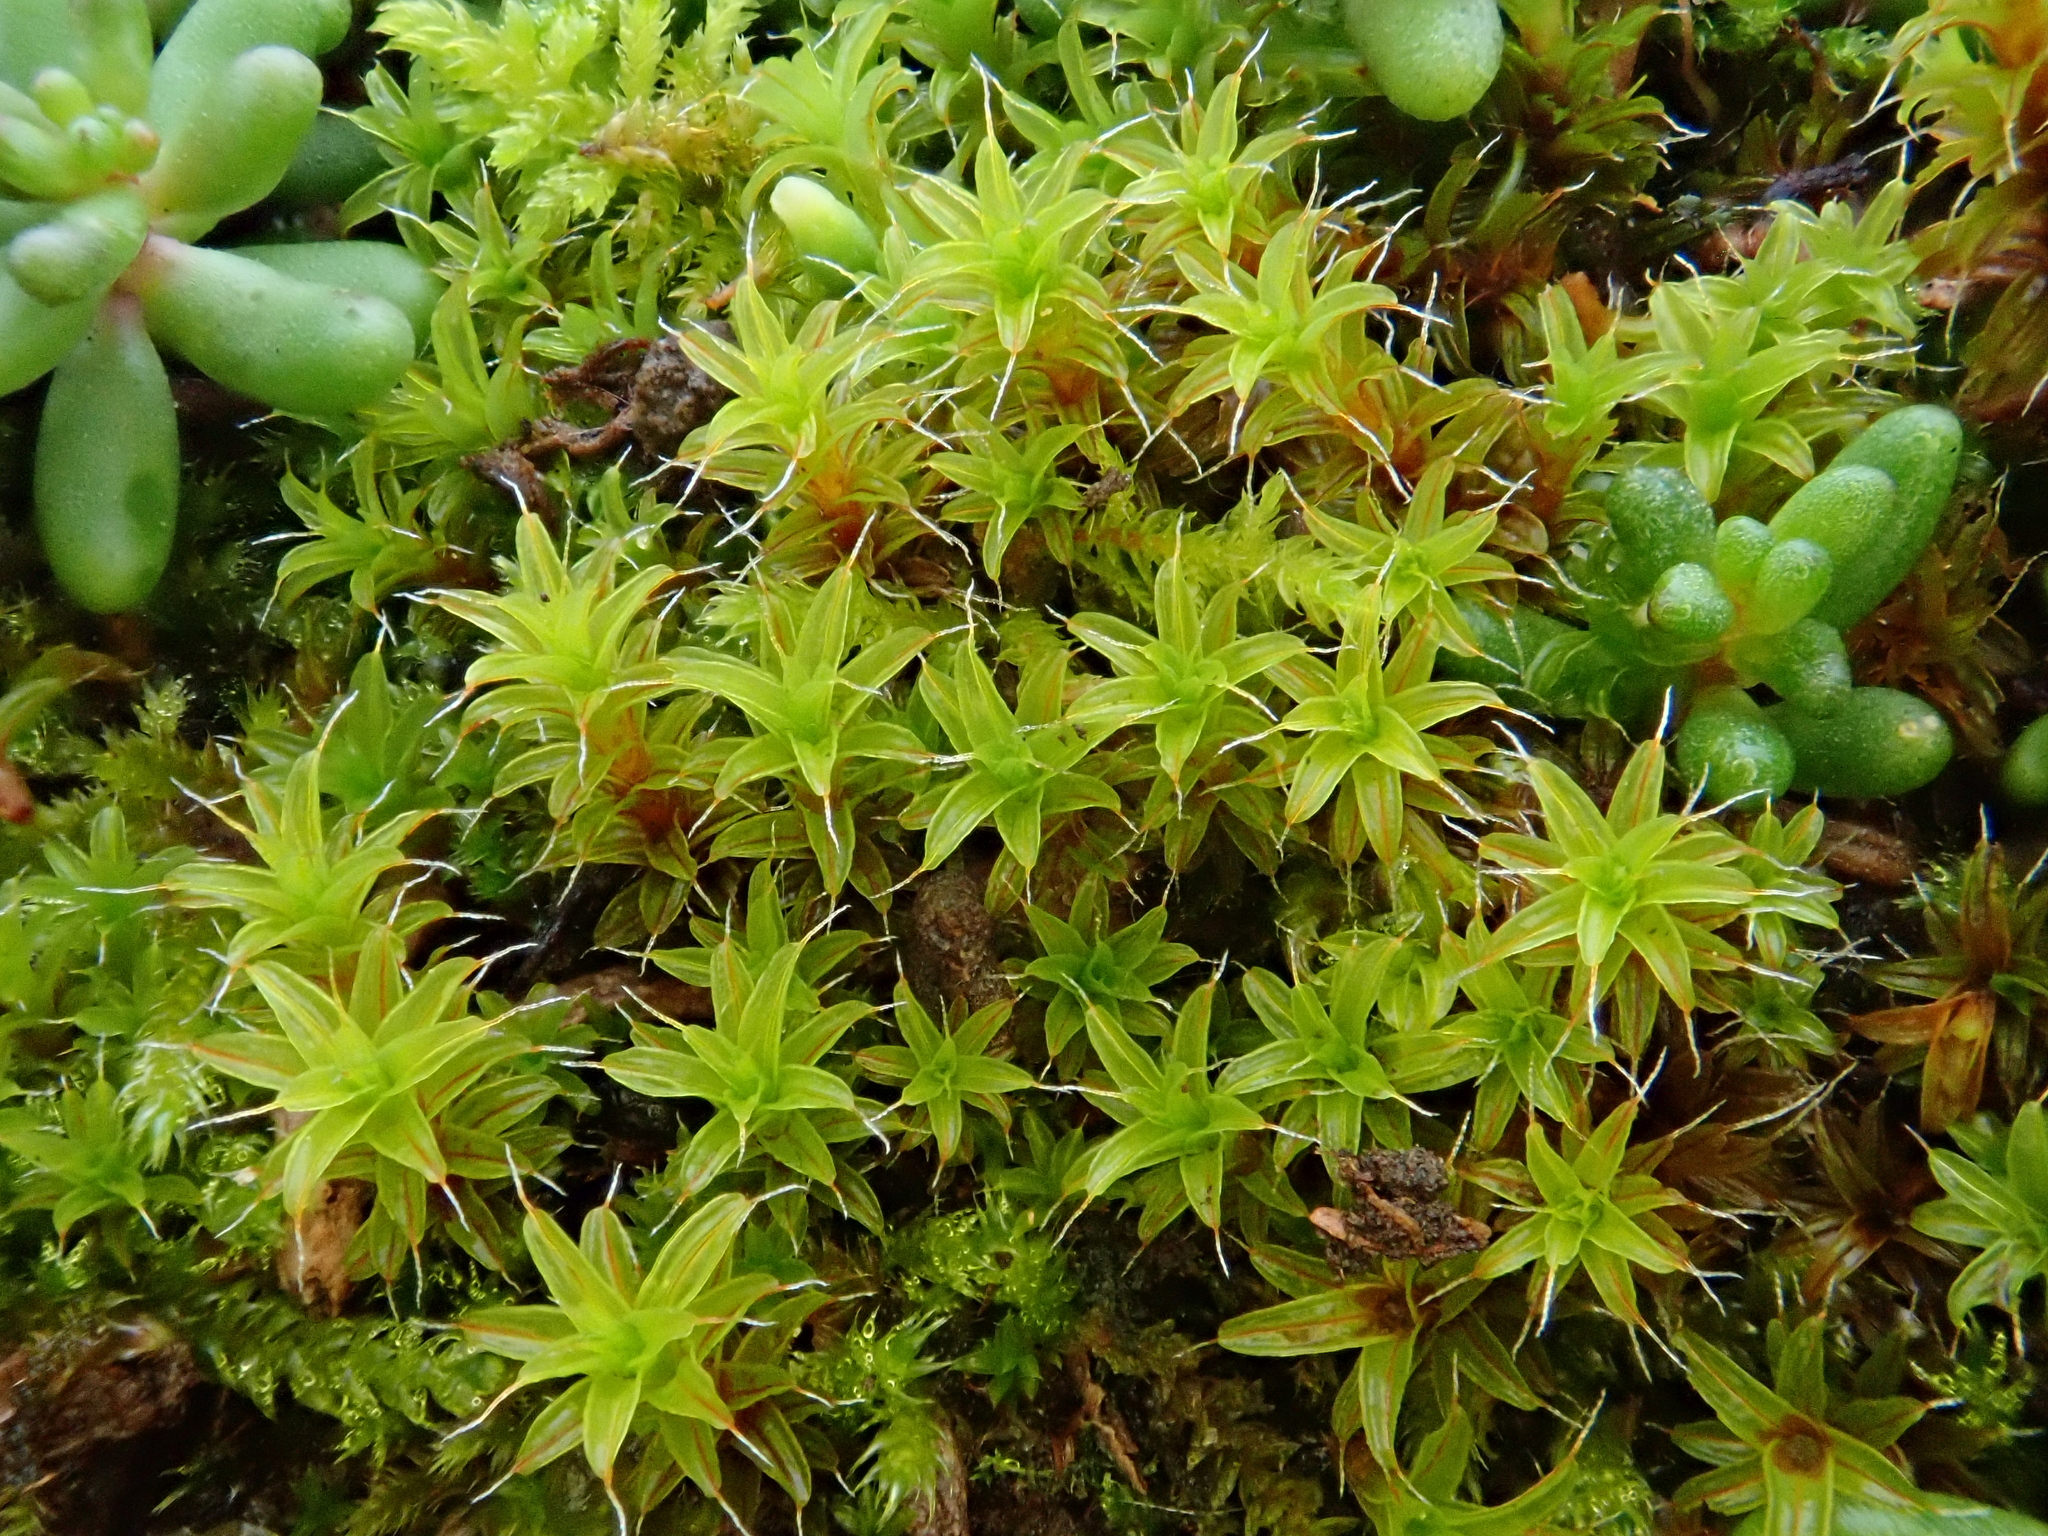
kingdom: Plantae
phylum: Bryophyta
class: Bryopsida
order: Pottiales
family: Pottiaceae
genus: Syntrichia
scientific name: Syntrichia ruralis
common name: Sidewalk screw moss
